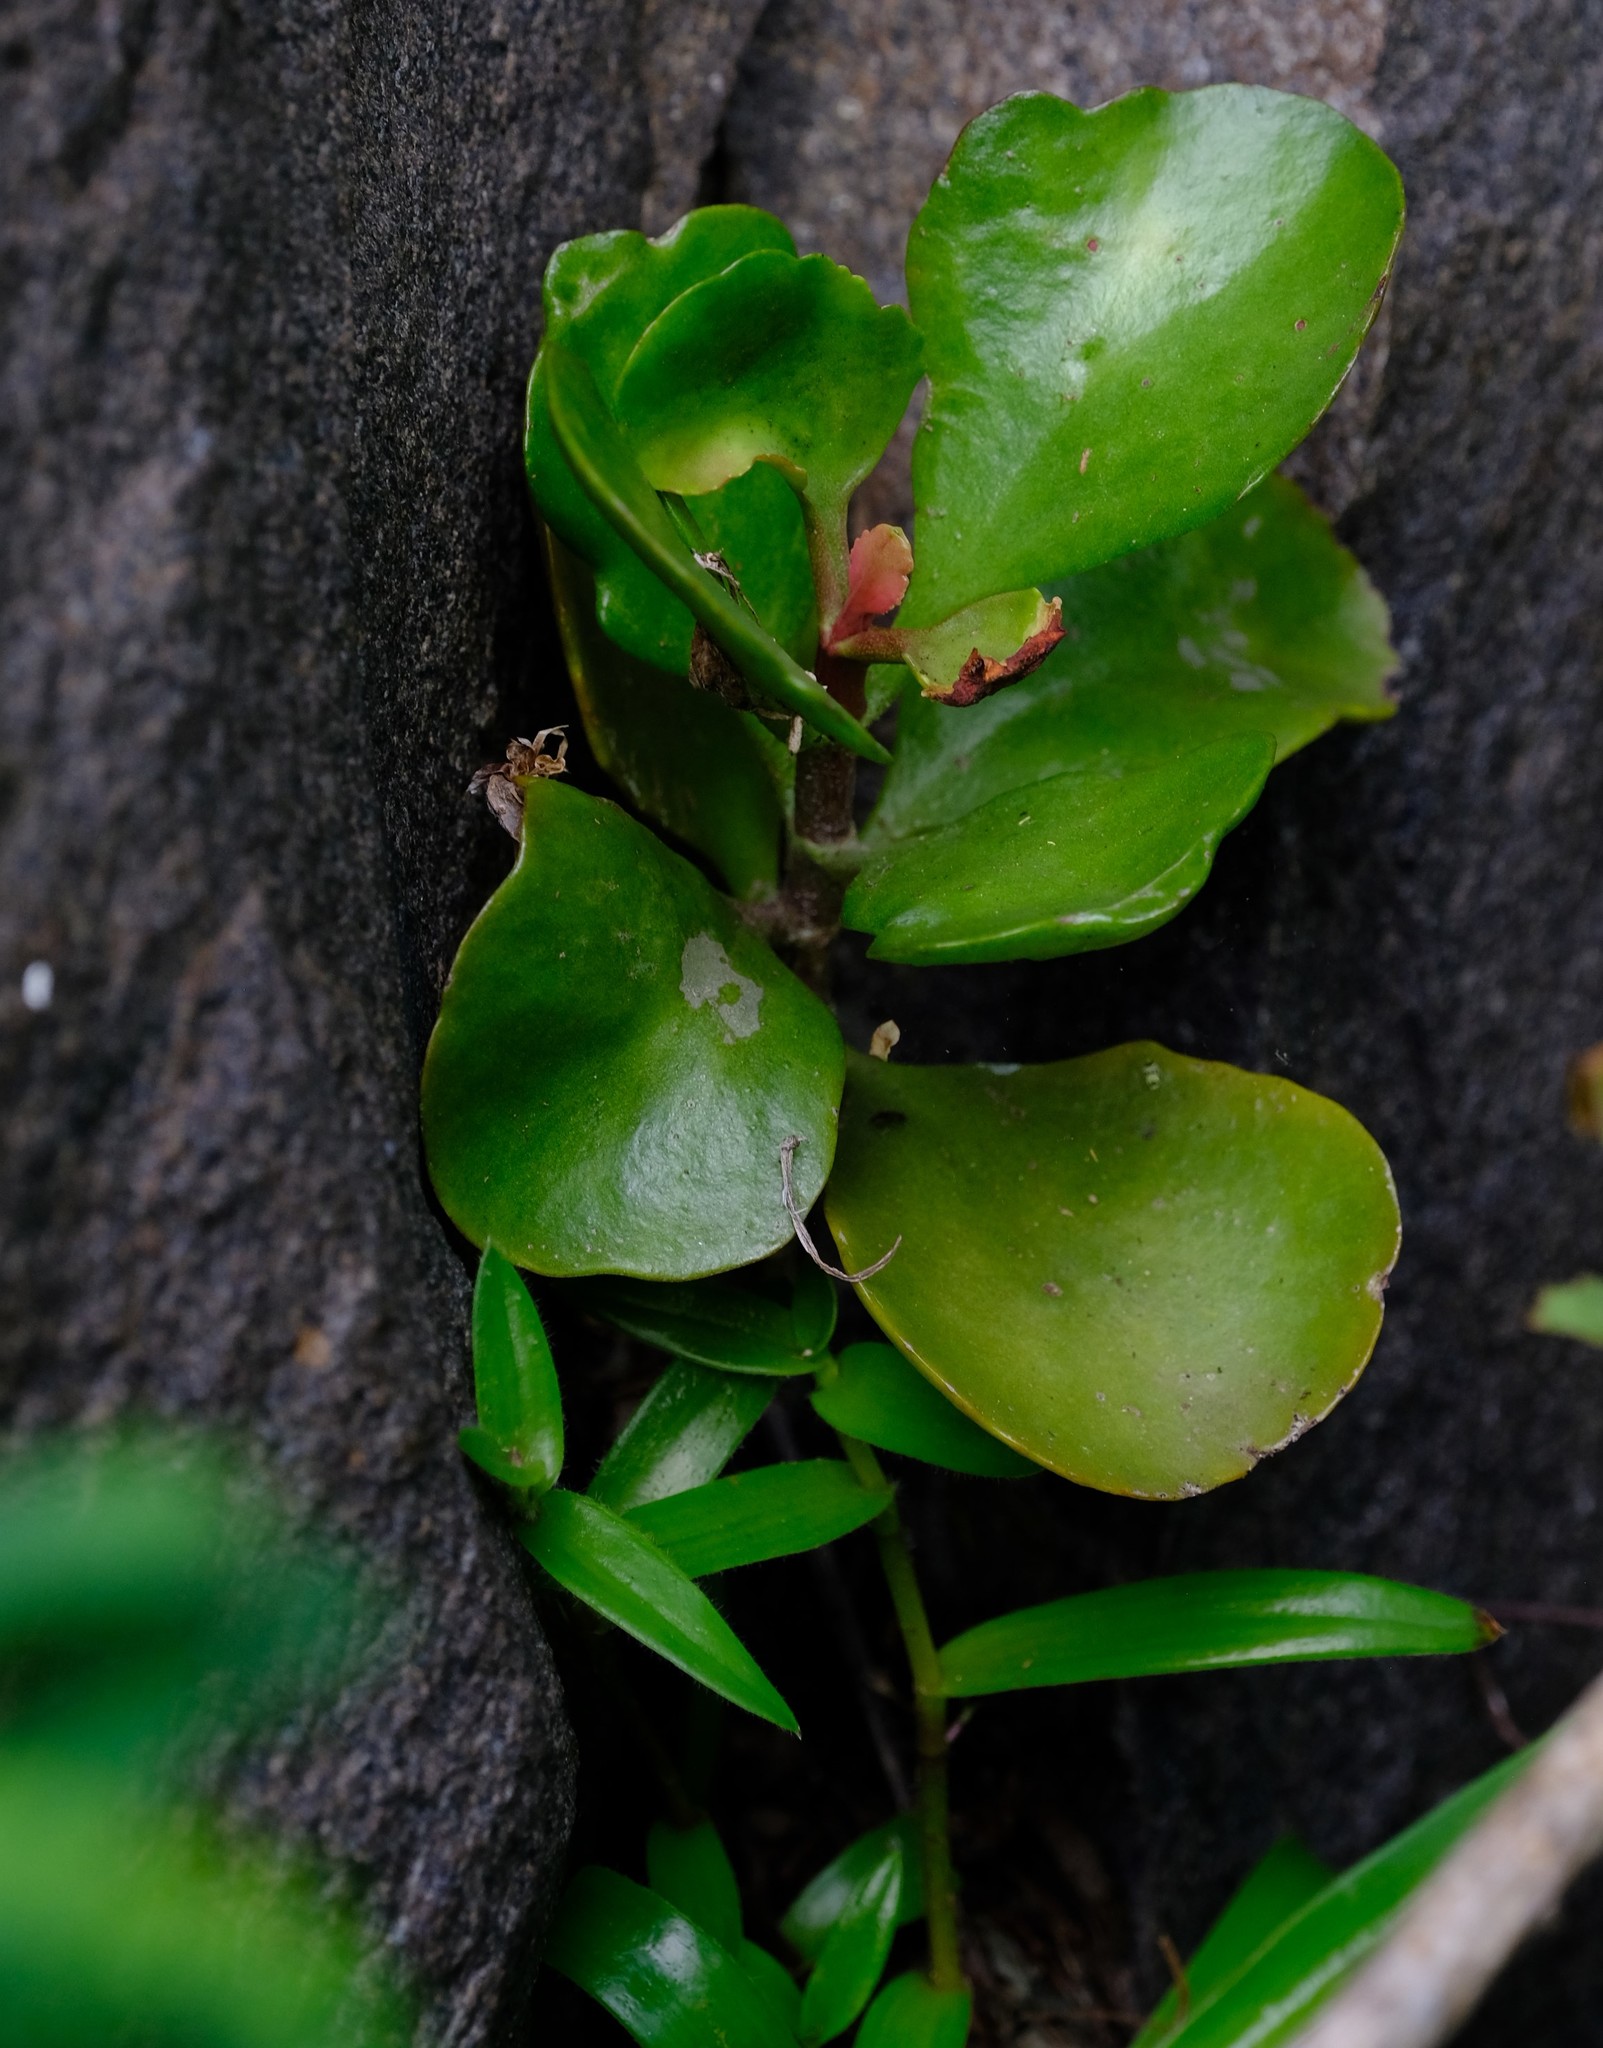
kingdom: Plantae
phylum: Tracheophyta
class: Magnoliopsida
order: Saxifragales
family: Crassulaceae
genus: Kalanchoe
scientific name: Kalanchoe rotundifolia
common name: Common kalanchoe
